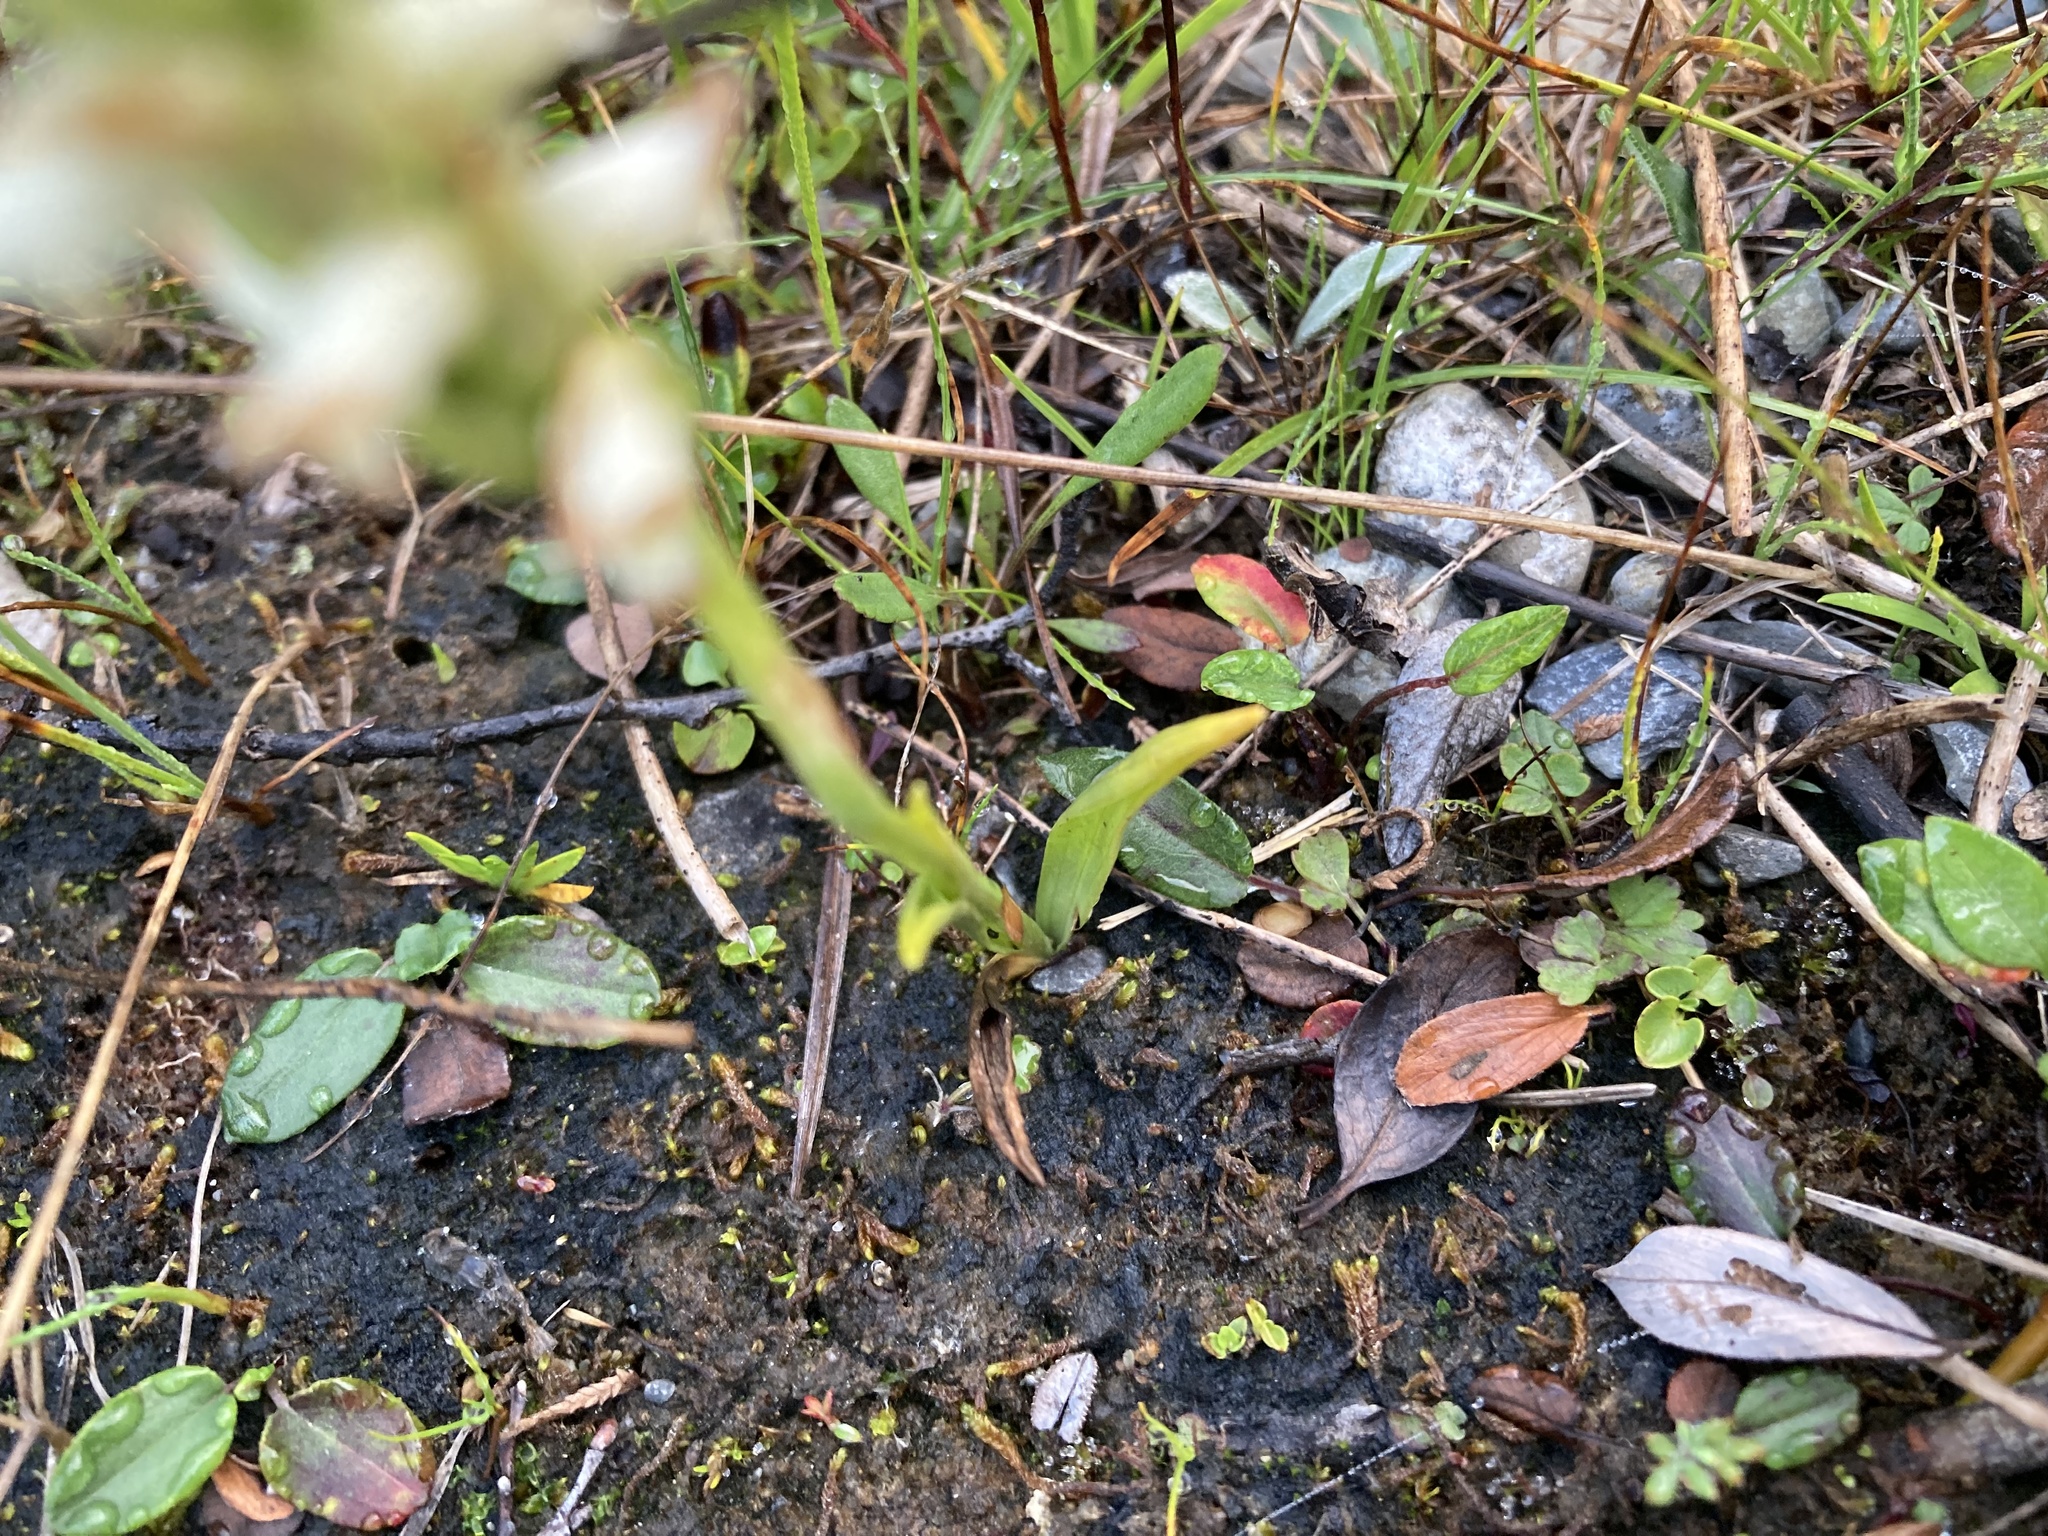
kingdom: Plantae
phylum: Tracheophyta
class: Liliopsida
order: Asparagales
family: Orchidaceae
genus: Spiranthes
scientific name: Spiranthes romanzoffiana
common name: Irish lady's-tresses
